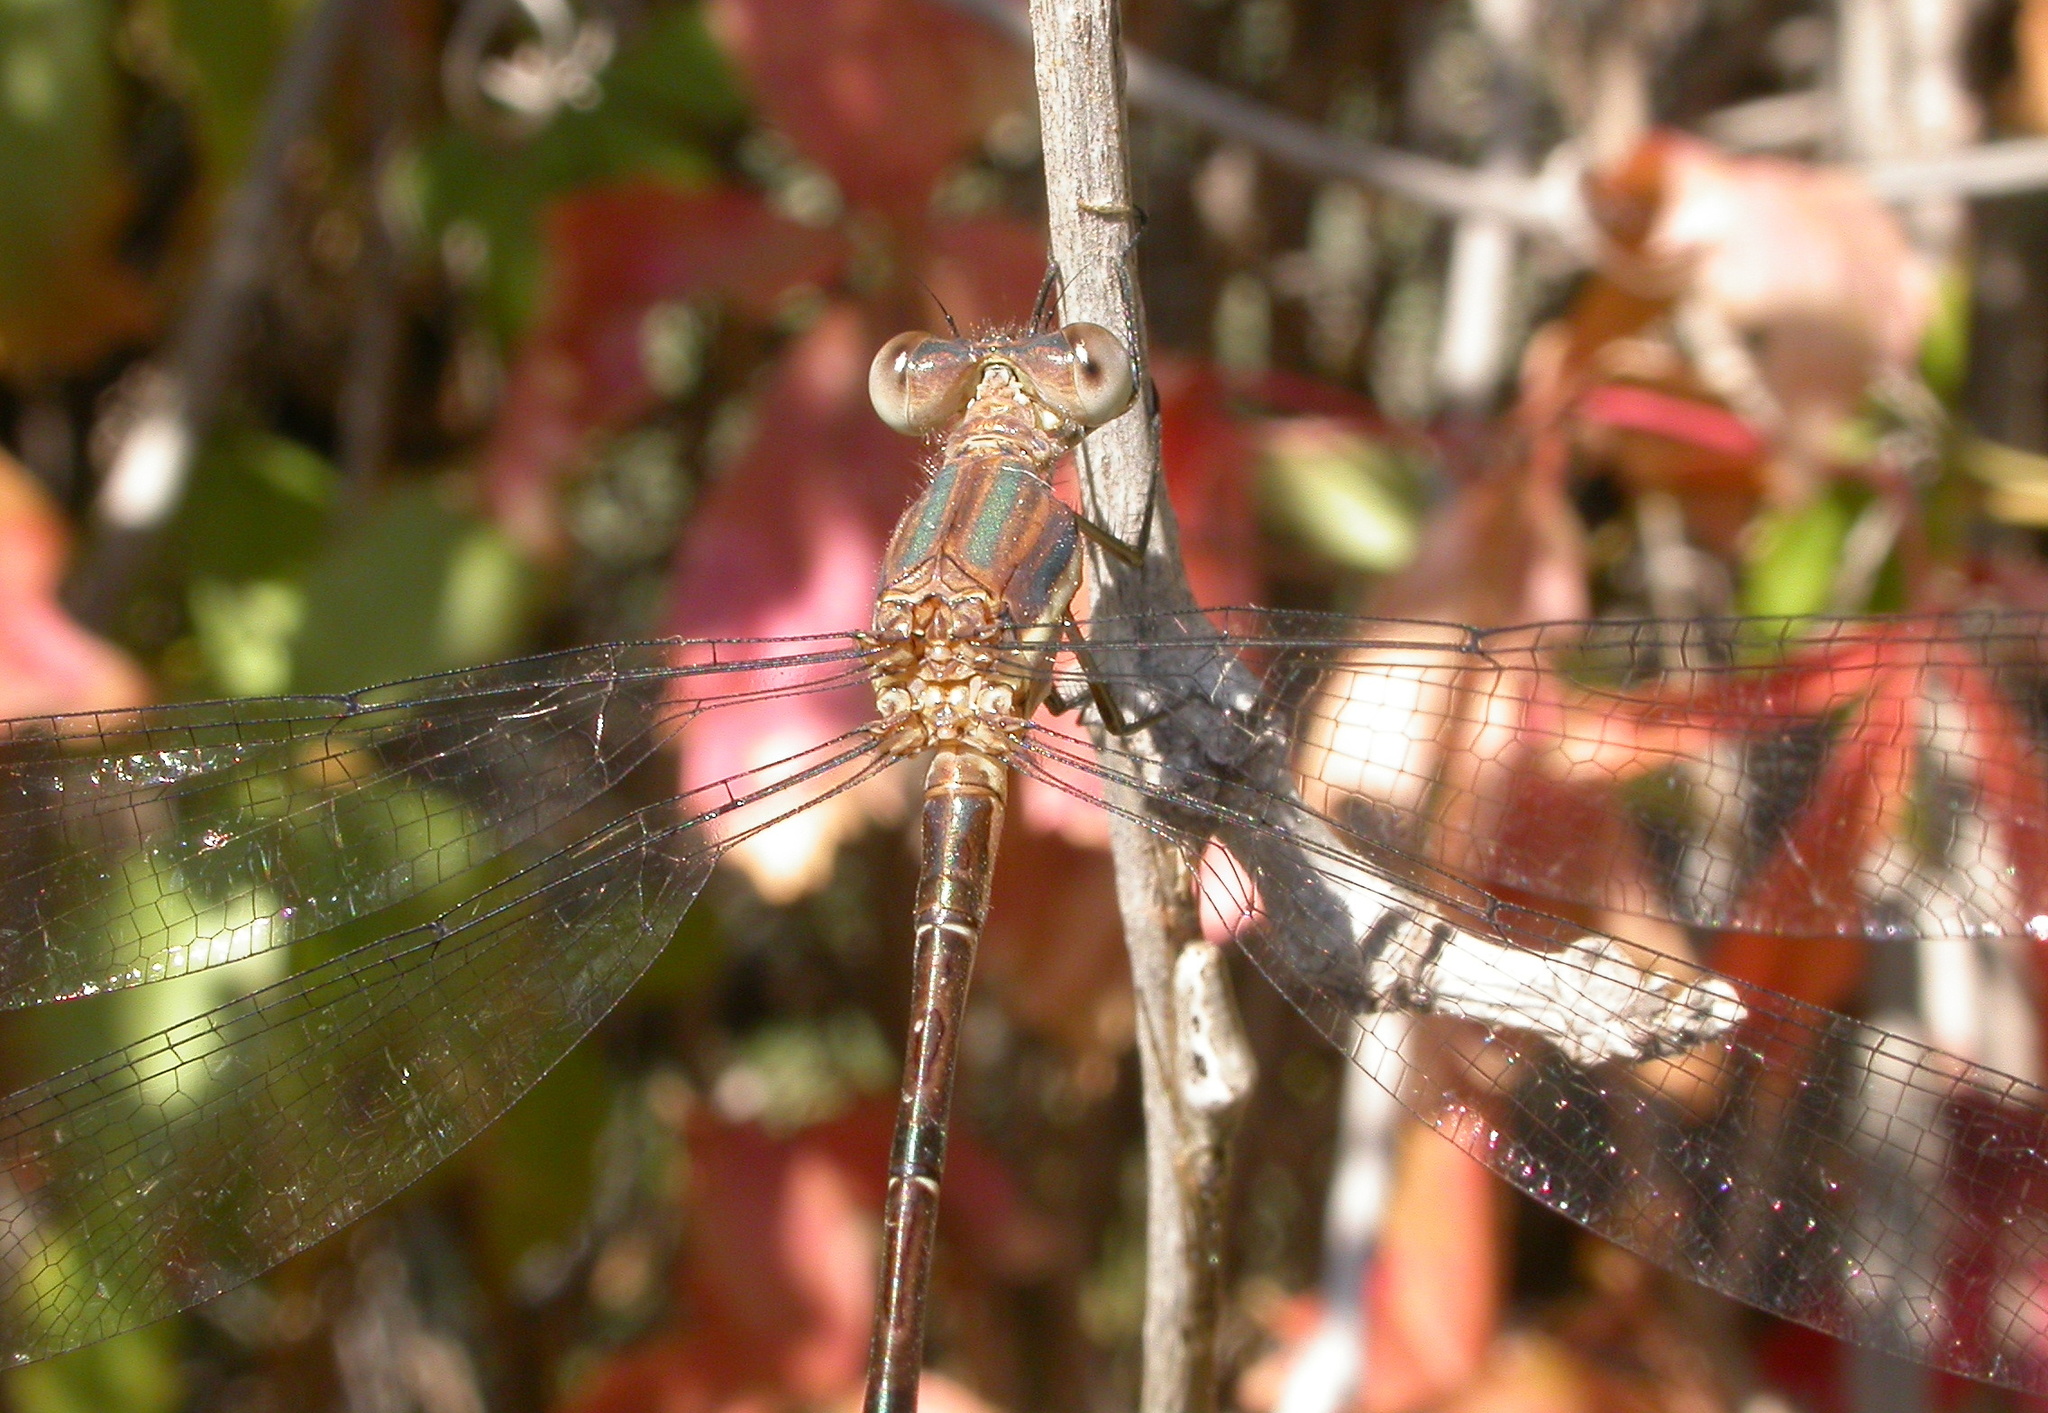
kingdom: Animalia
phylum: Arthropoda
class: Insecta
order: Odonata
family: Lestidae
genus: Archilestes
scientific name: Archilestes grandis
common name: Great spreadwing
